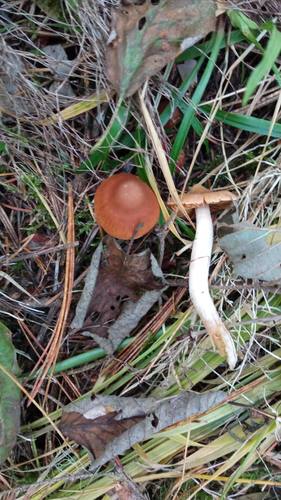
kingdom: Fungi
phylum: Basidiomycota
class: Agaricomycetes
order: Agaricales
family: Cortinariaceae
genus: Cortinarius
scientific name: Cortinarius
